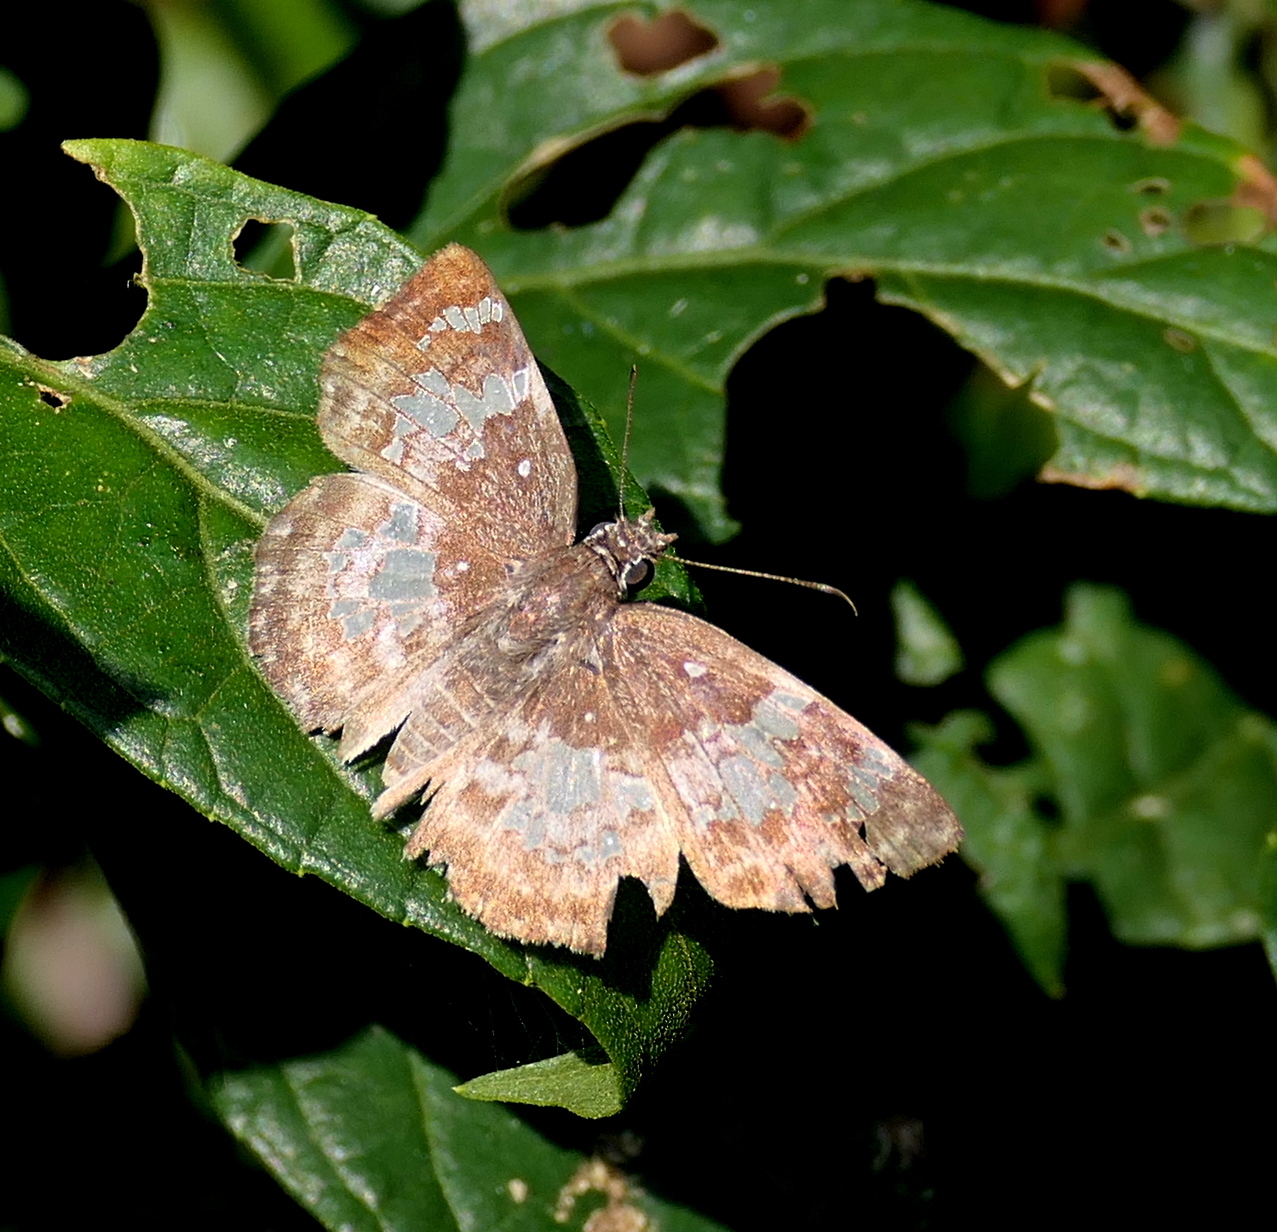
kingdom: Animalia
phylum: Arthropoda
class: Insecta
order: Lepidoptera
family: Hesperiidae
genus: Xenophanes
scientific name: Xenophanes tryxus
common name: Glassy-winged skipper
